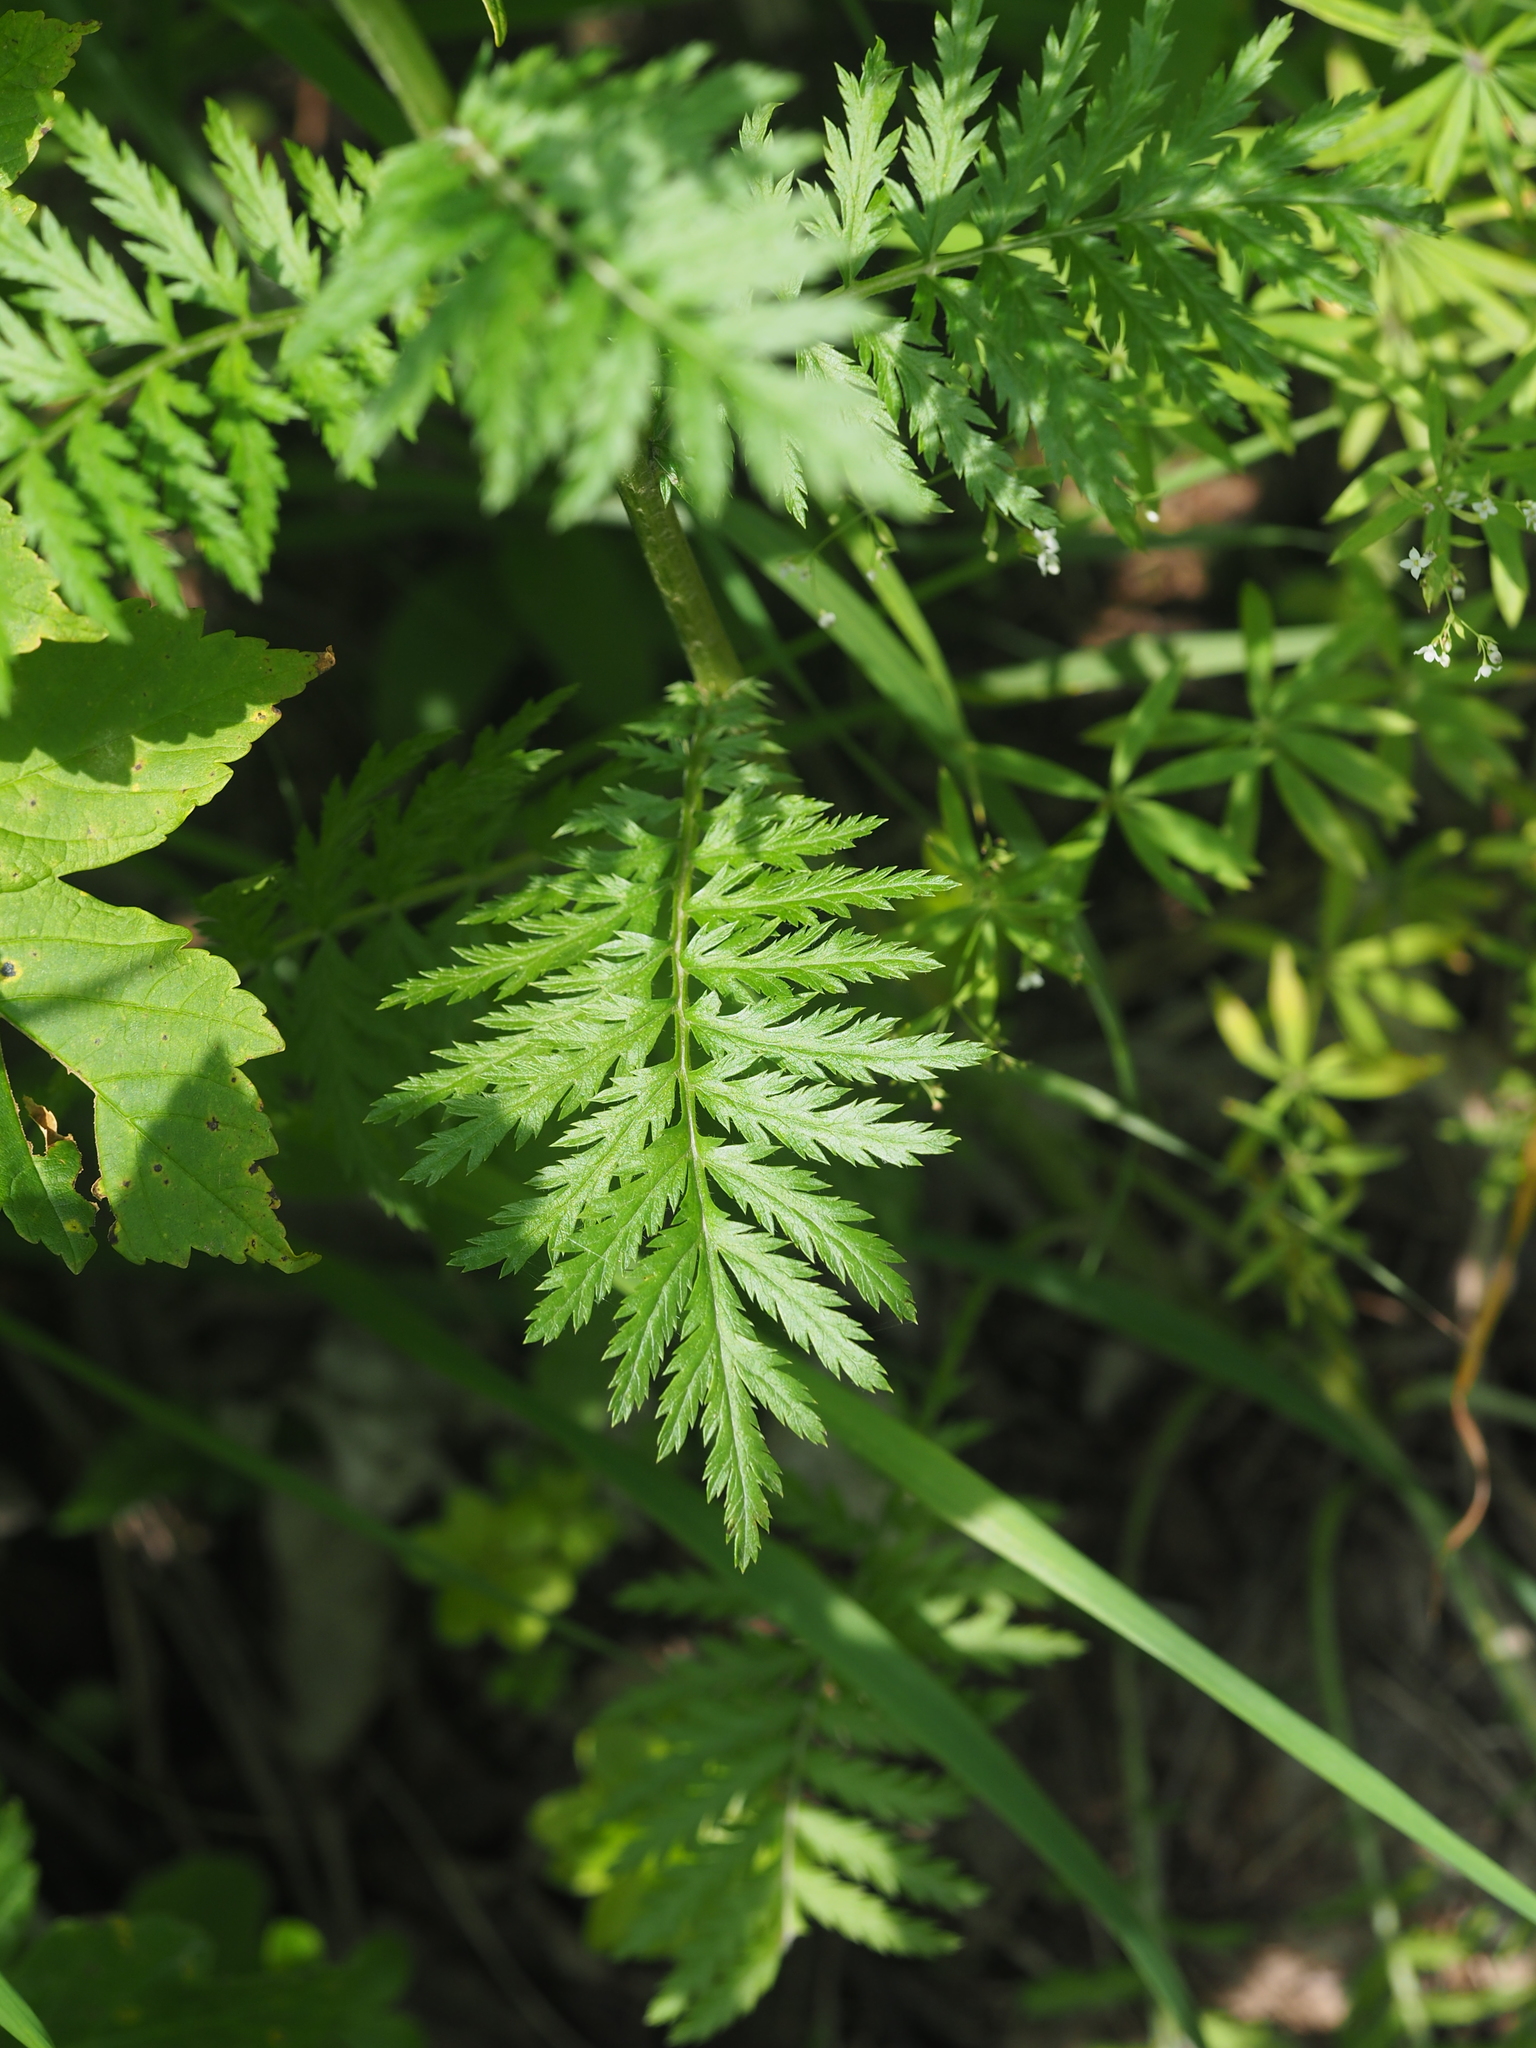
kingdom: Plantae
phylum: Tracheophyta
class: Magnoliopsida
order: Asterales
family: Asteraceae
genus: Tanacetum
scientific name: Tanacetum corymbosum
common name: Scentless feverfew
